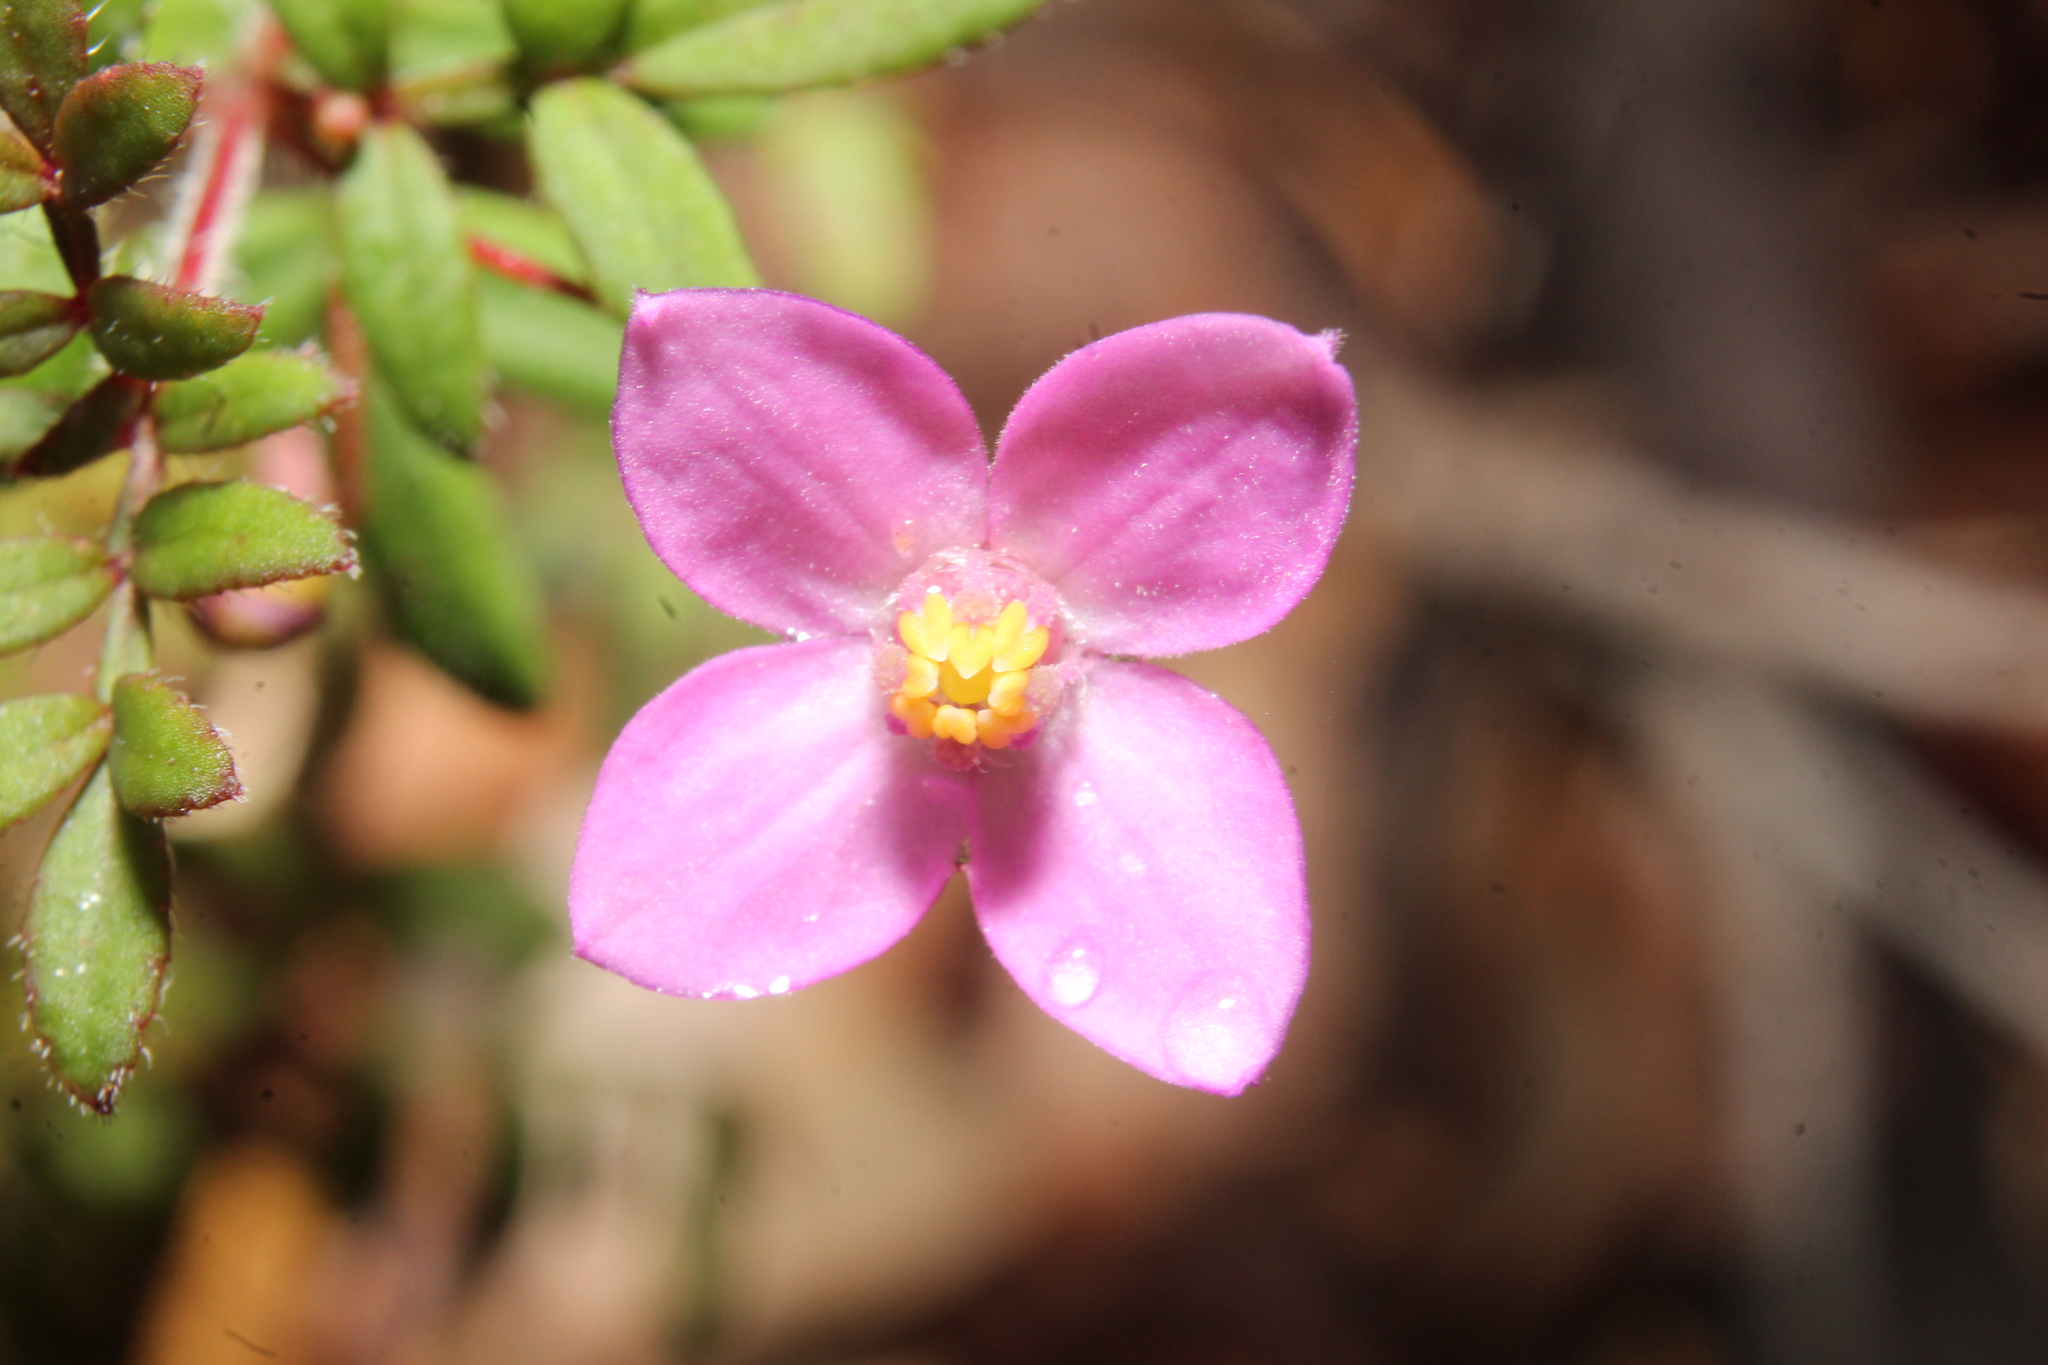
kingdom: Plantae
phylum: Tracheophyta
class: Magnoliopsida
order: Sapindales
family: Rutaceae
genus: Boronia
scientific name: Boronia gracilipes
